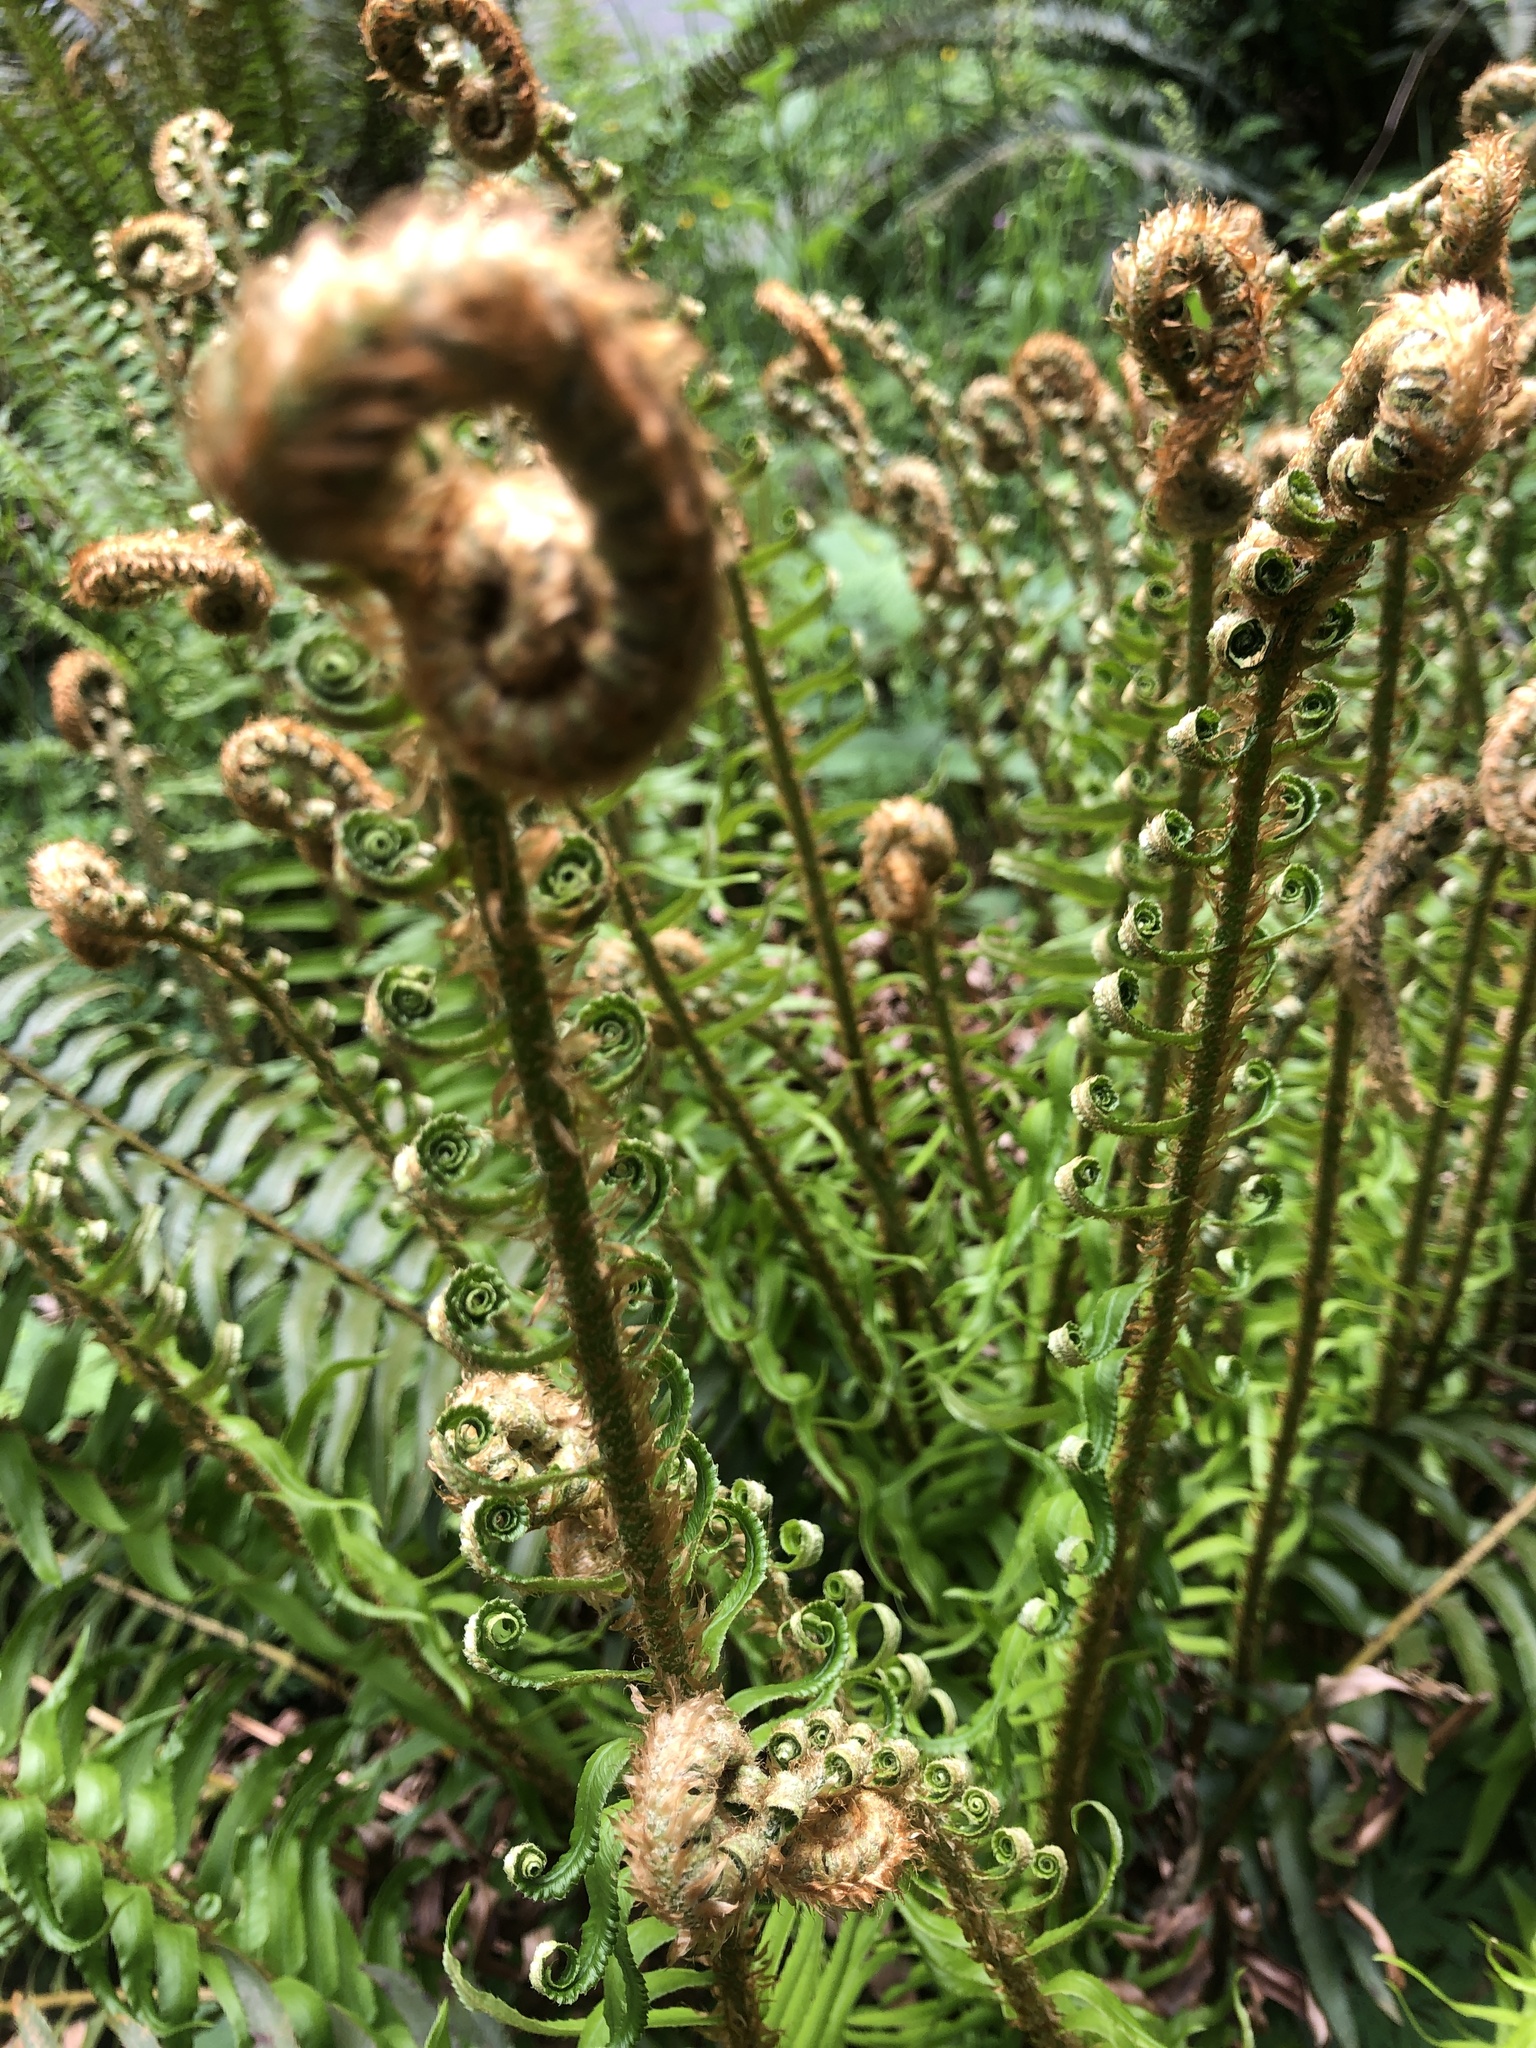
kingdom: Plantae
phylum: Tracheophyta
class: Polypodiopsida
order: Polypodiales
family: Dryopteridaceae
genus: Polystichum
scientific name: Polystichum munitum
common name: Western sword-fern
